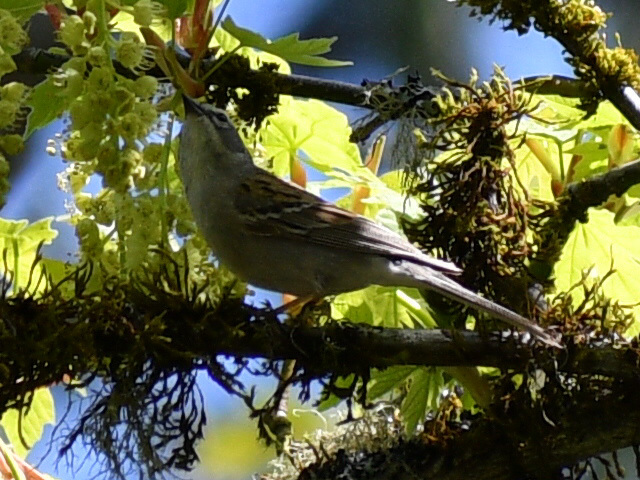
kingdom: Animalia
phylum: Chordata
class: Aves
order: Passeriformes
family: Passerellidae
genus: Spizella
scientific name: Spizella passerina
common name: Chipping sparrow
